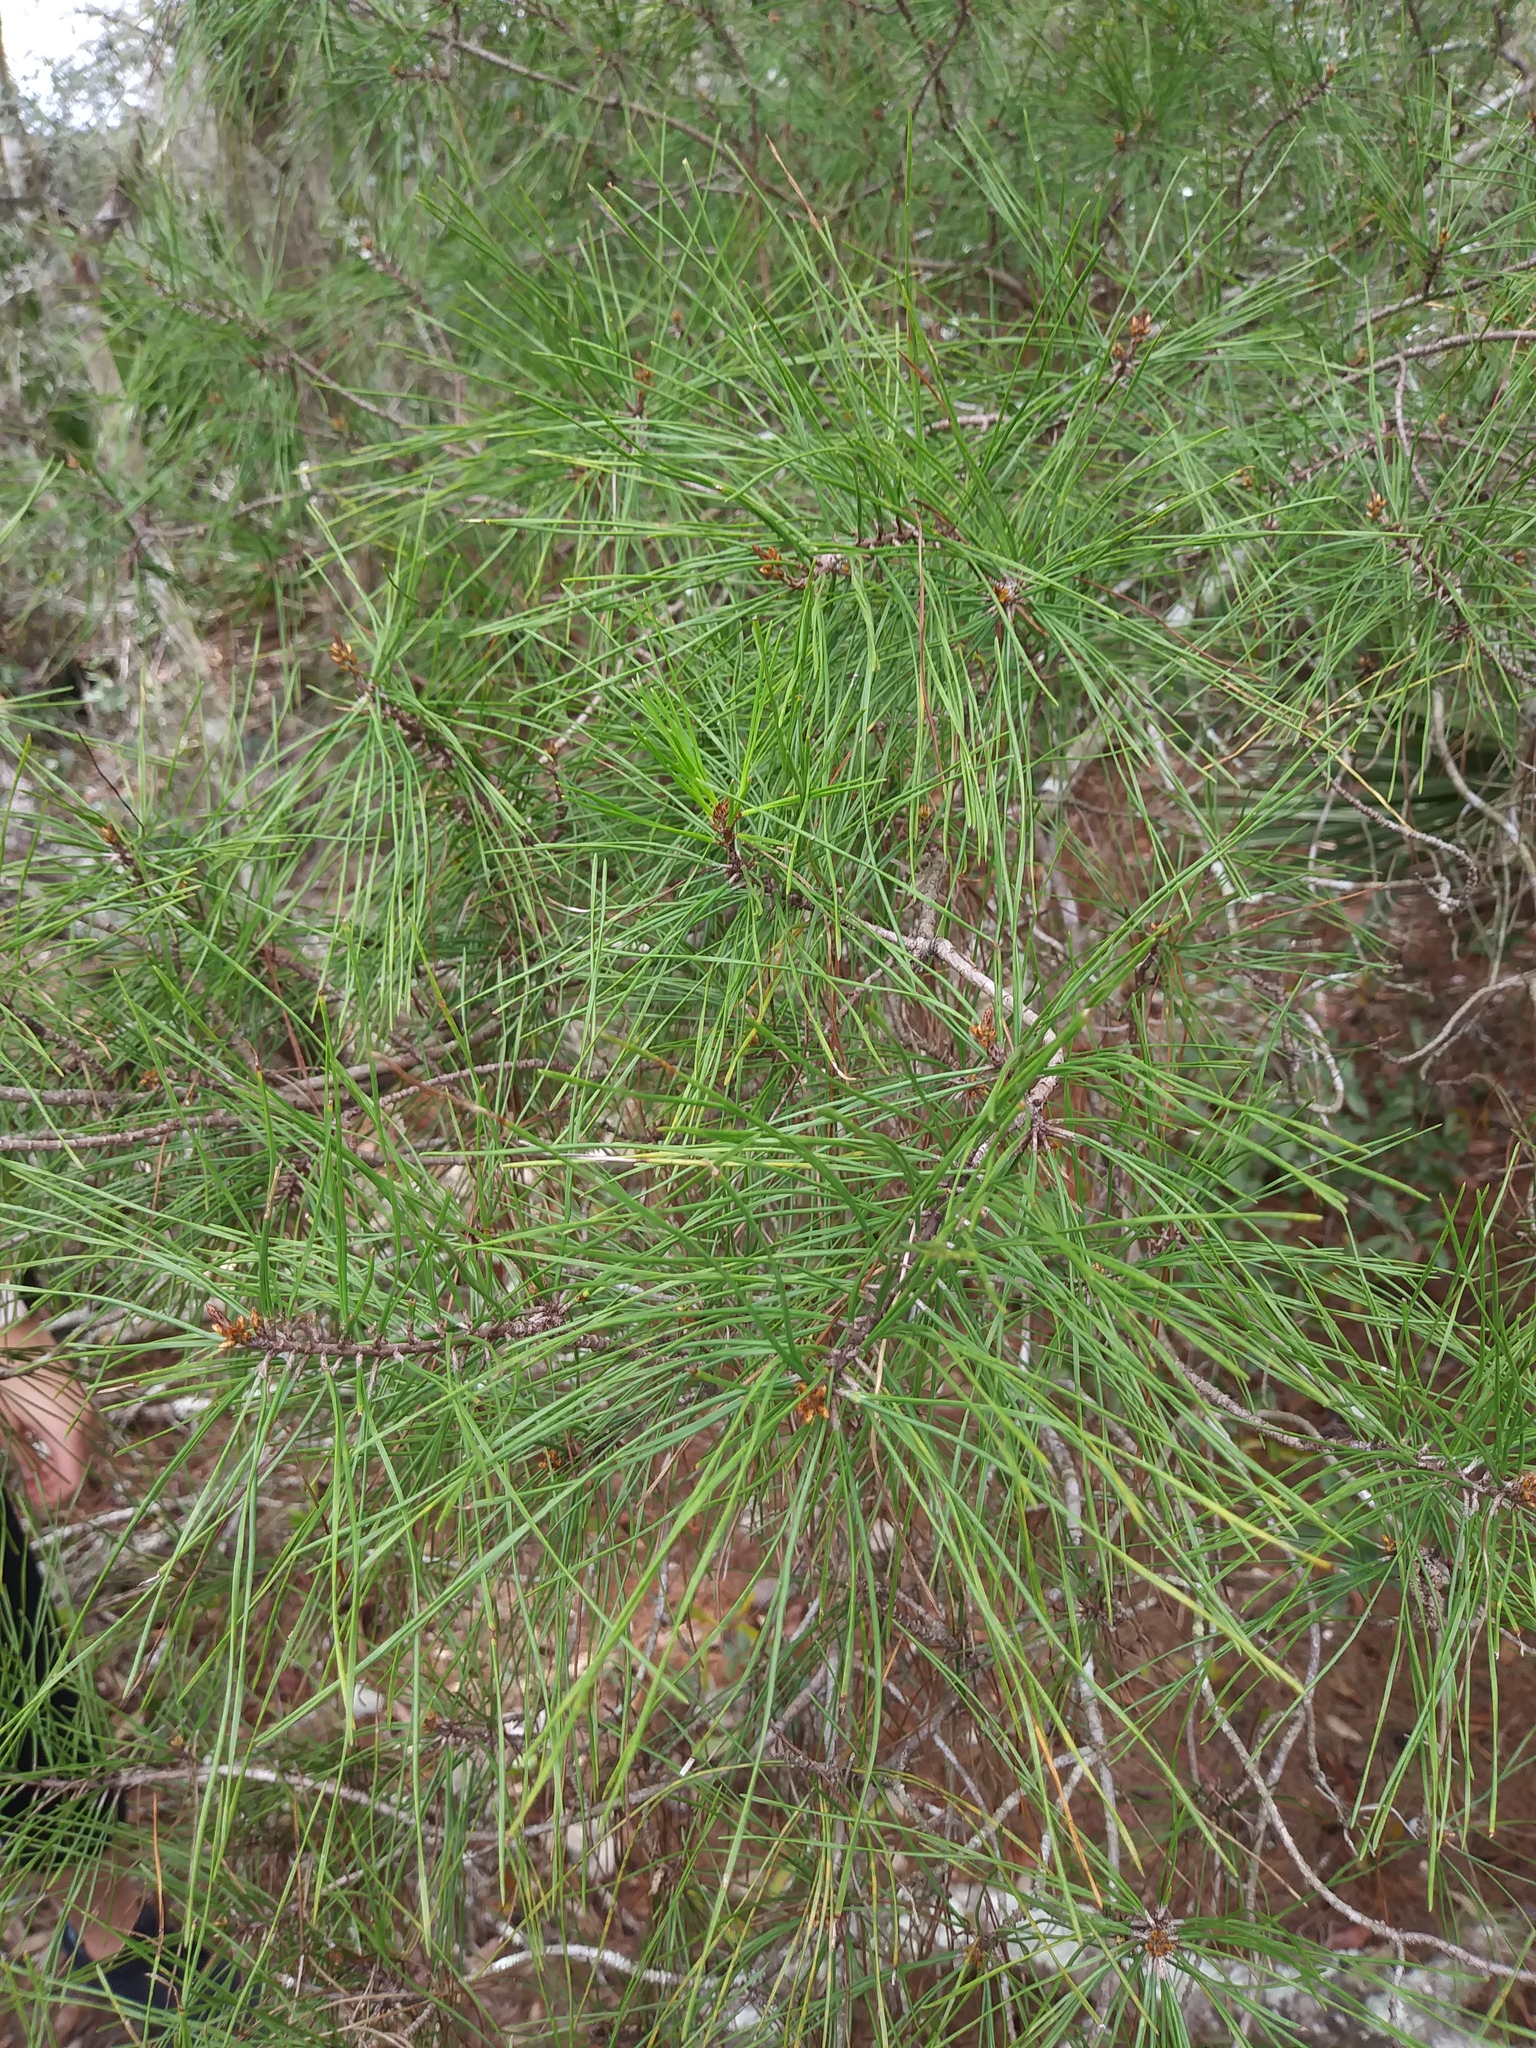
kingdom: Plantae
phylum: Tracheophyta
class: Pinopsida
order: Pinales
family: Pinaceae
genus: Pinus
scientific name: Pinus clausa
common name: Sand pine
